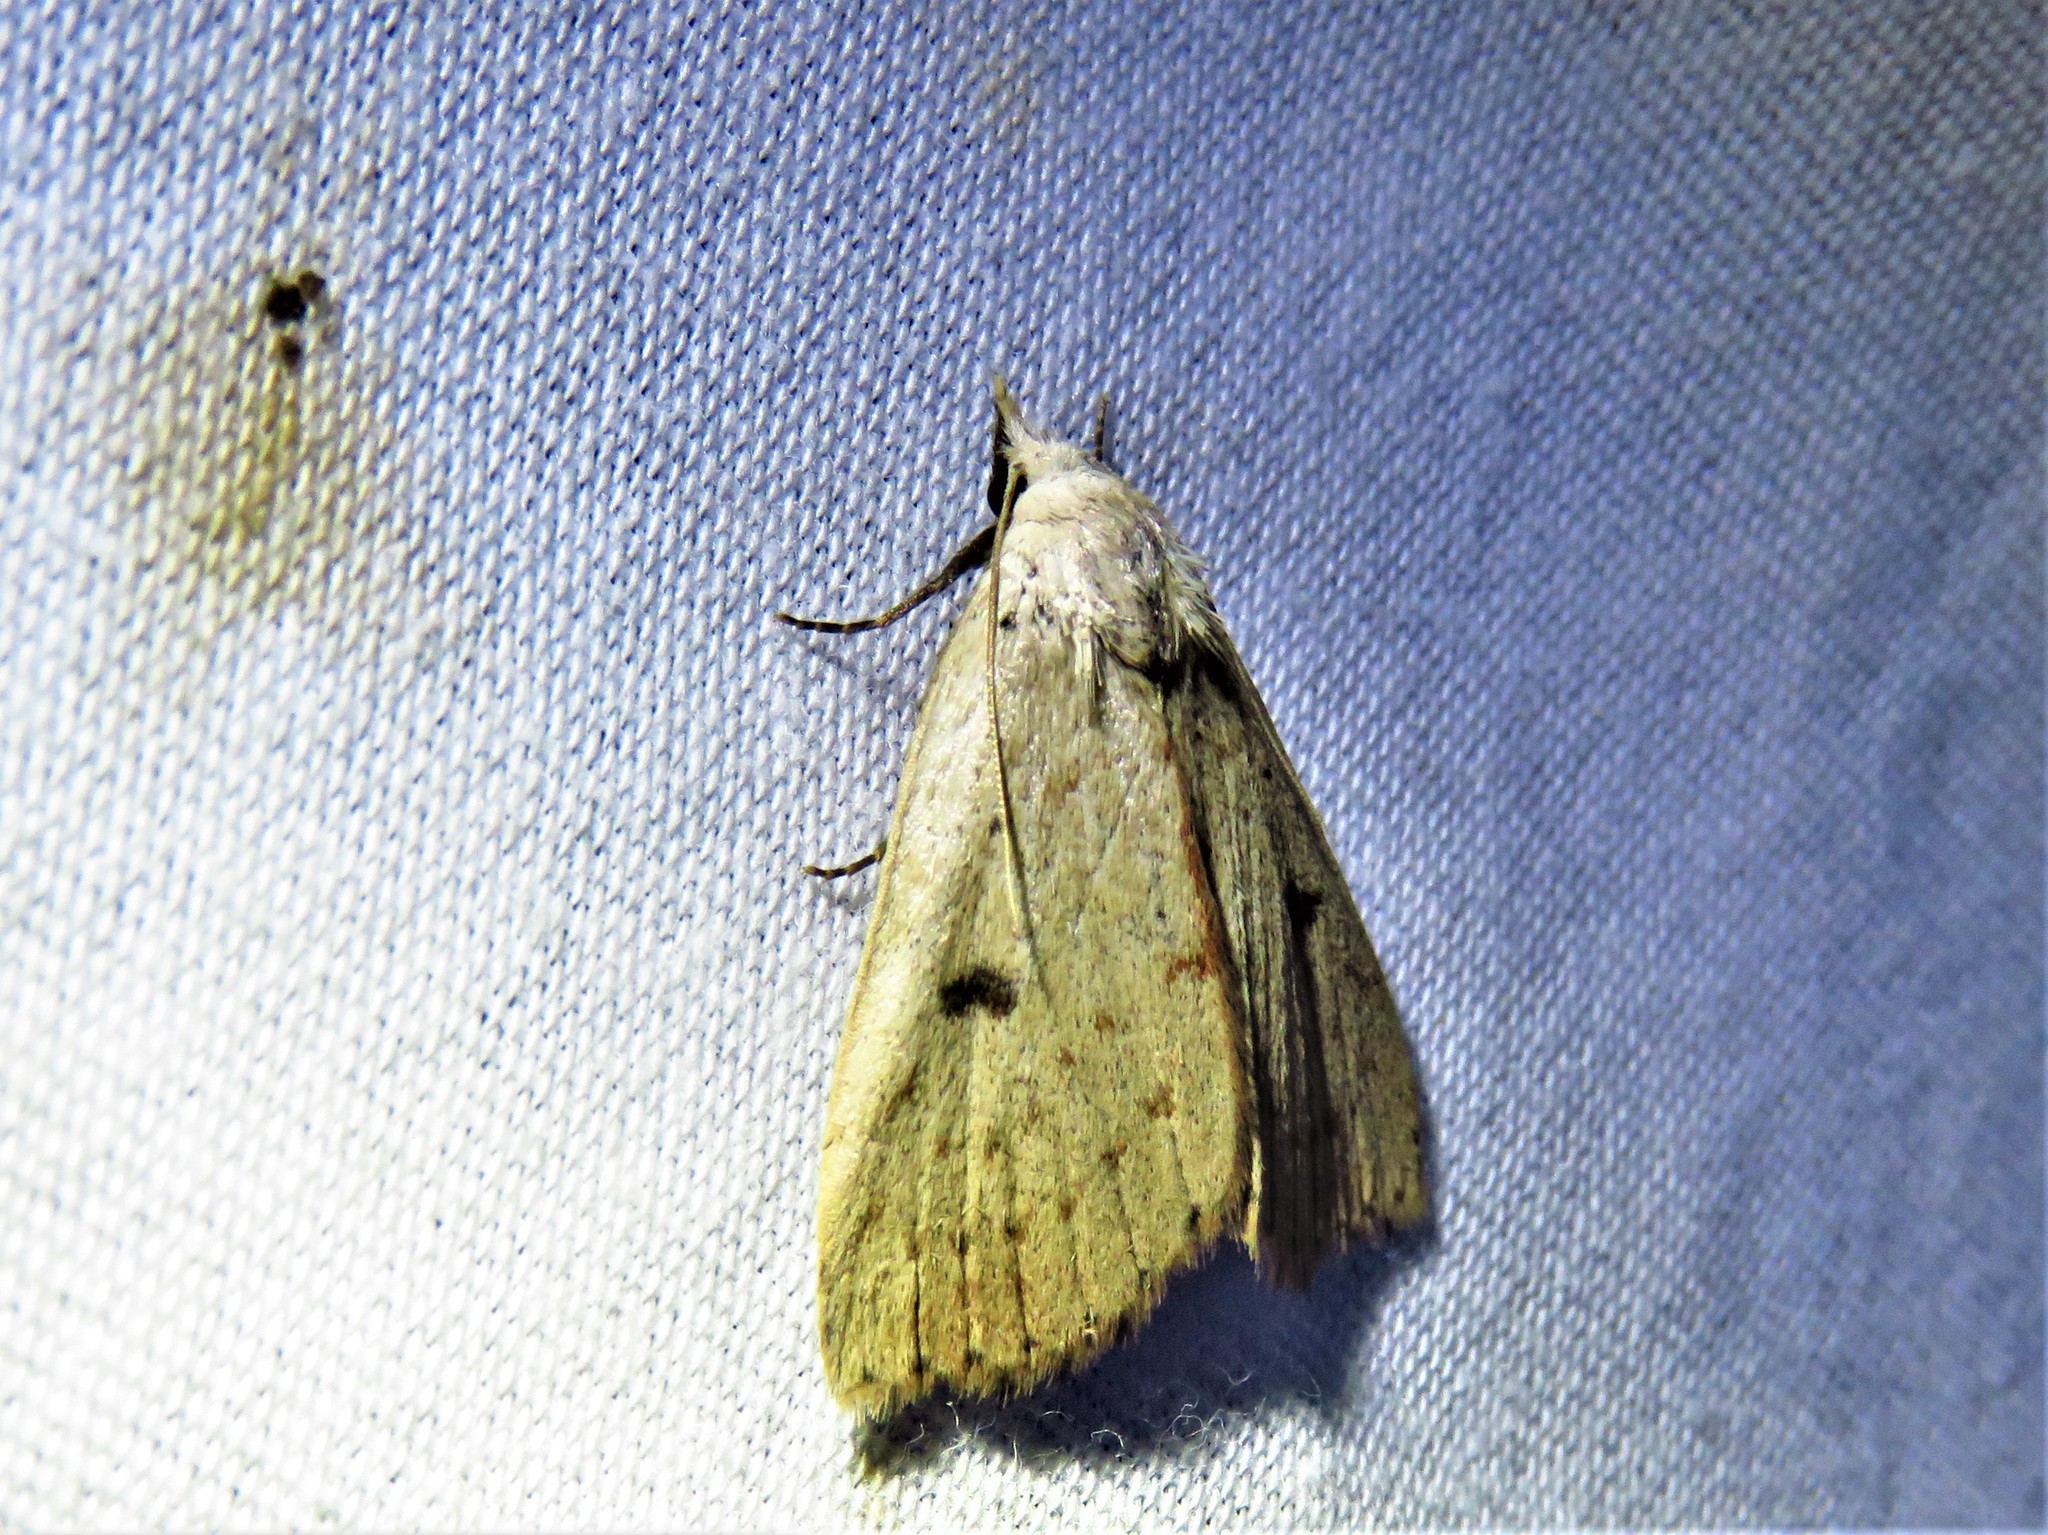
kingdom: Animalia
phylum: Arthropoda
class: Insecta
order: Lepidoptera
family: Erebidae
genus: Scolecocampa
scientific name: Scolecocampa liburna
